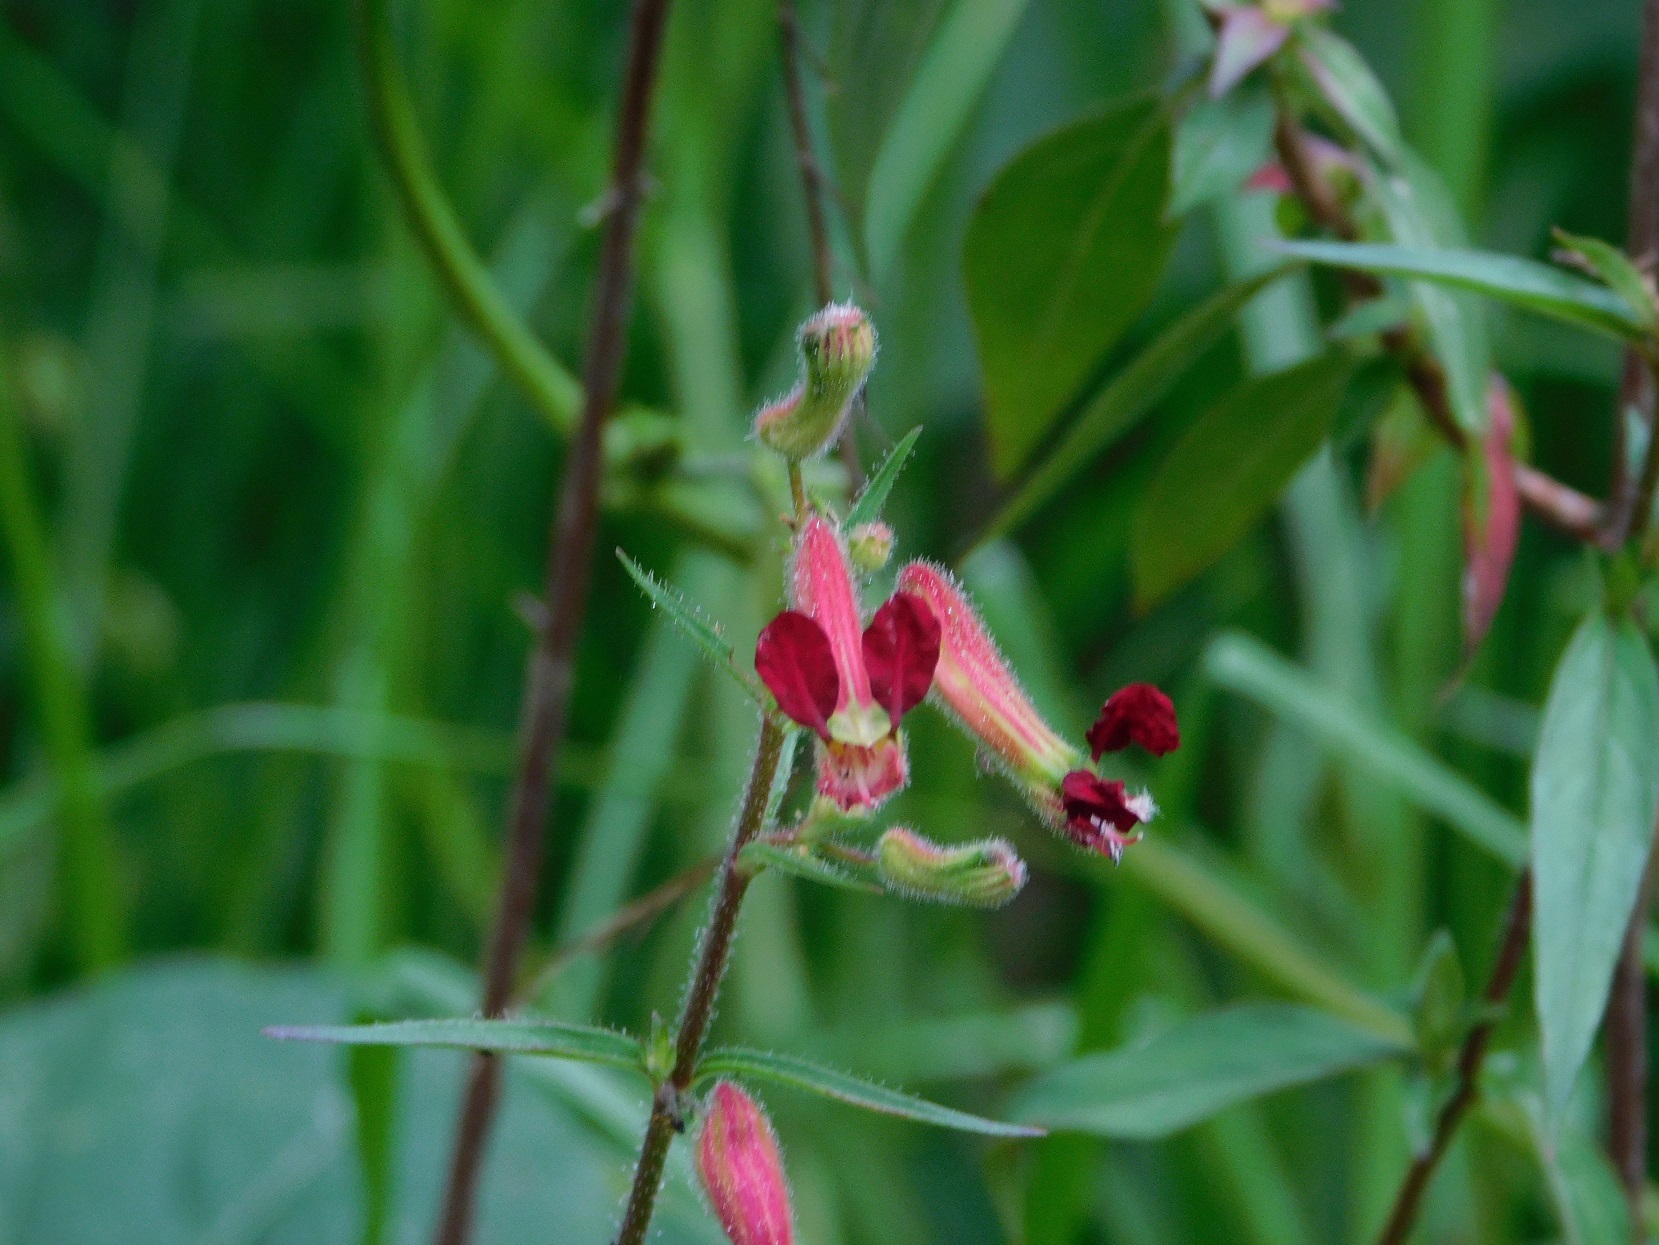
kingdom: Plantae
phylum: Tracheophyta
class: Magnoliopsida
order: Myrtales
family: Lythraceae
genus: Cuphea
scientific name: Cuphea hookeriana
